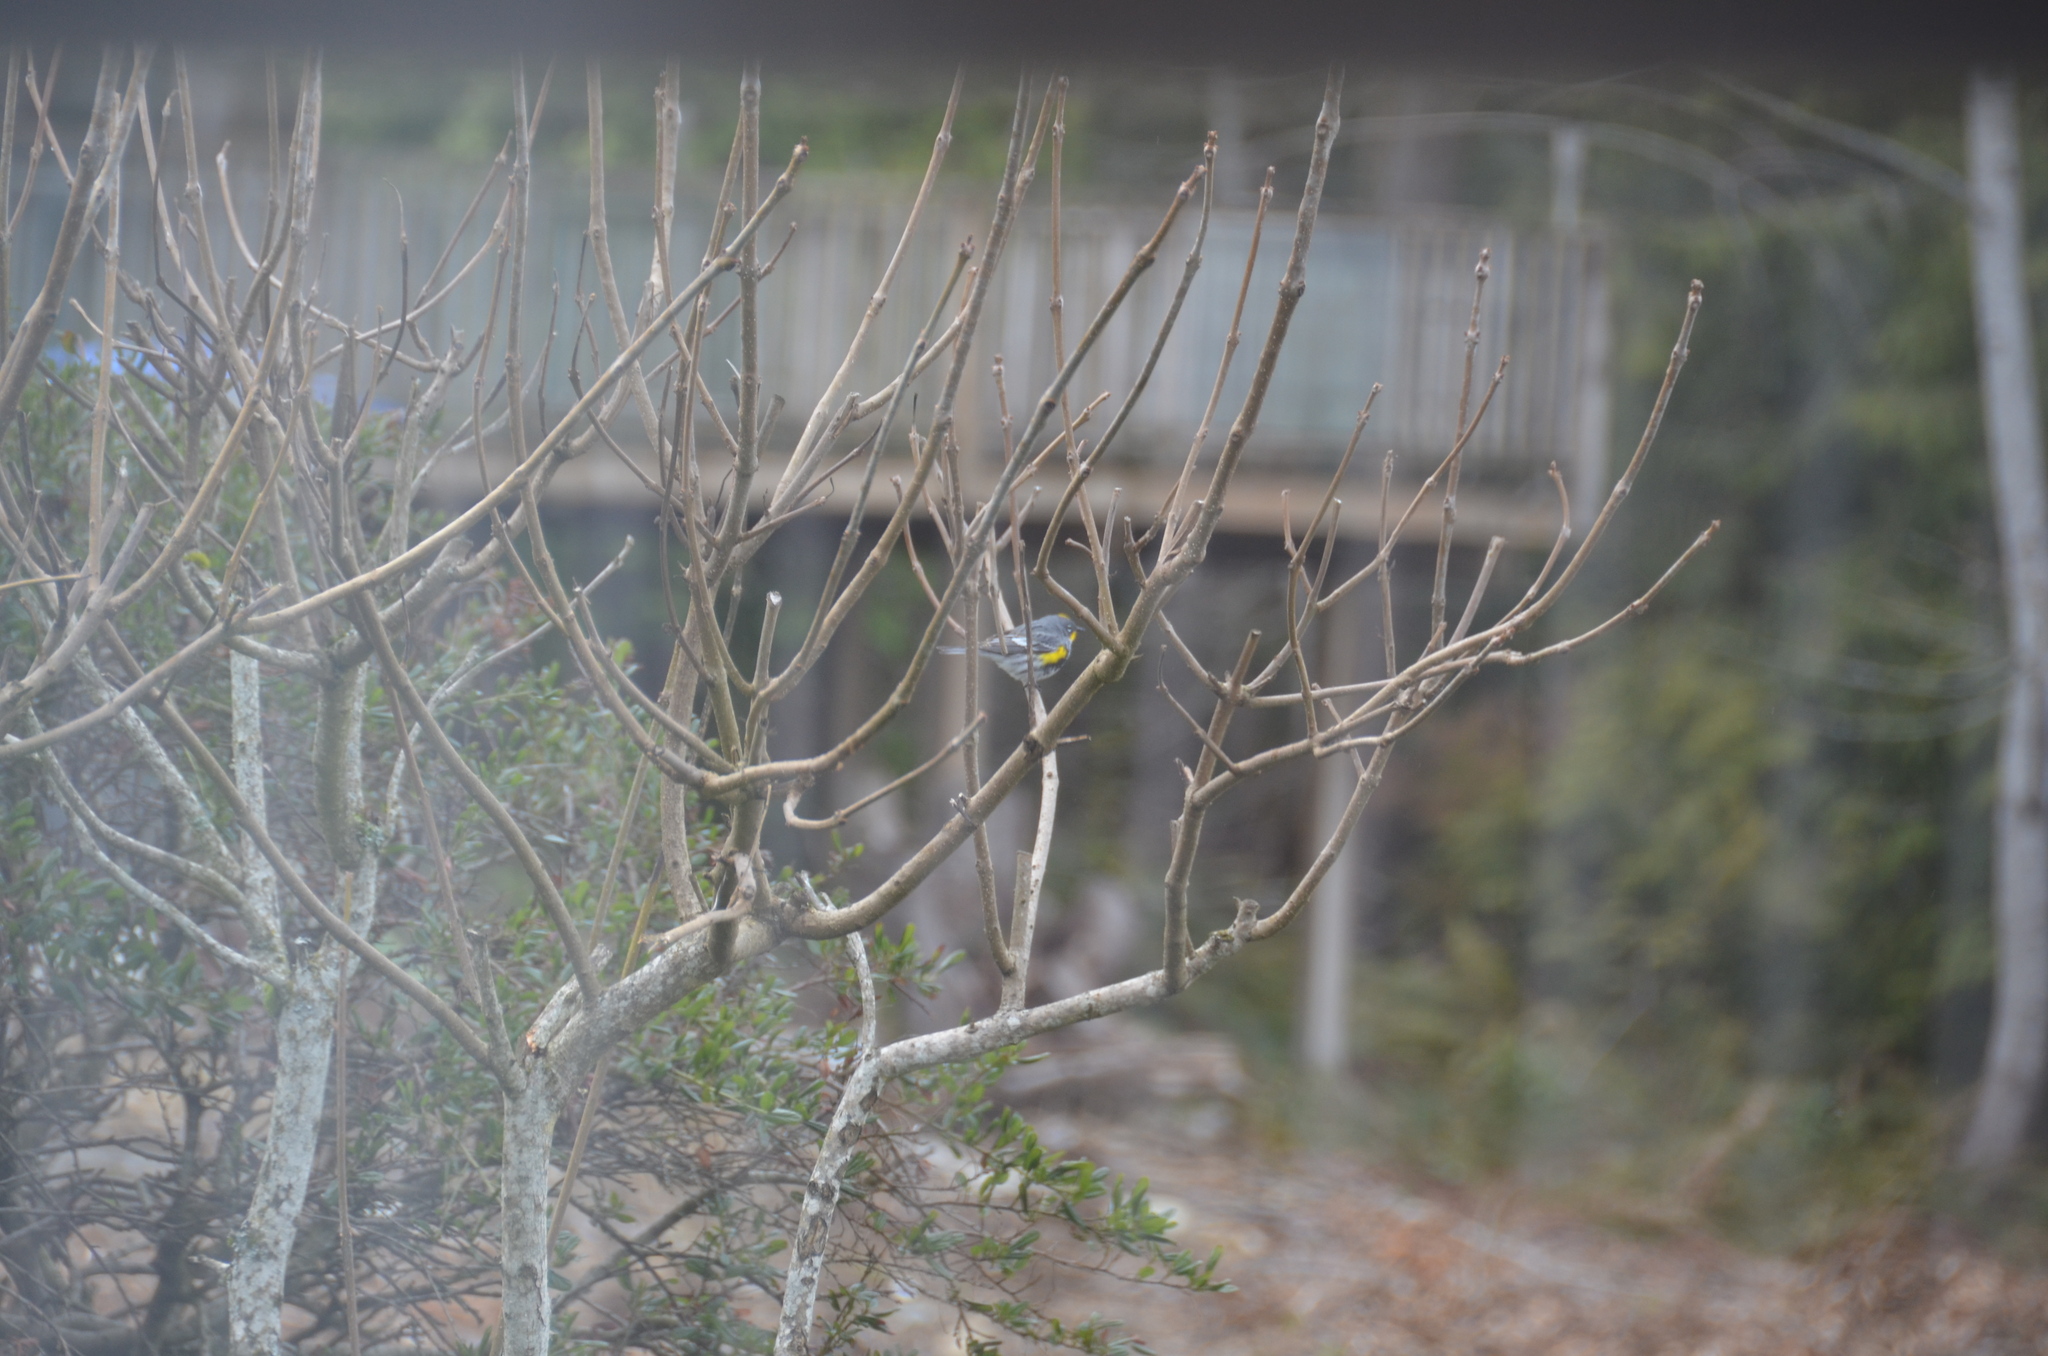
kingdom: Animalia
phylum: Chordata
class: Aves
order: Passeriformes
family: Parulidae
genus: Setophaga
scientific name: Setophaga auduboni
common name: Audubon's warbler
